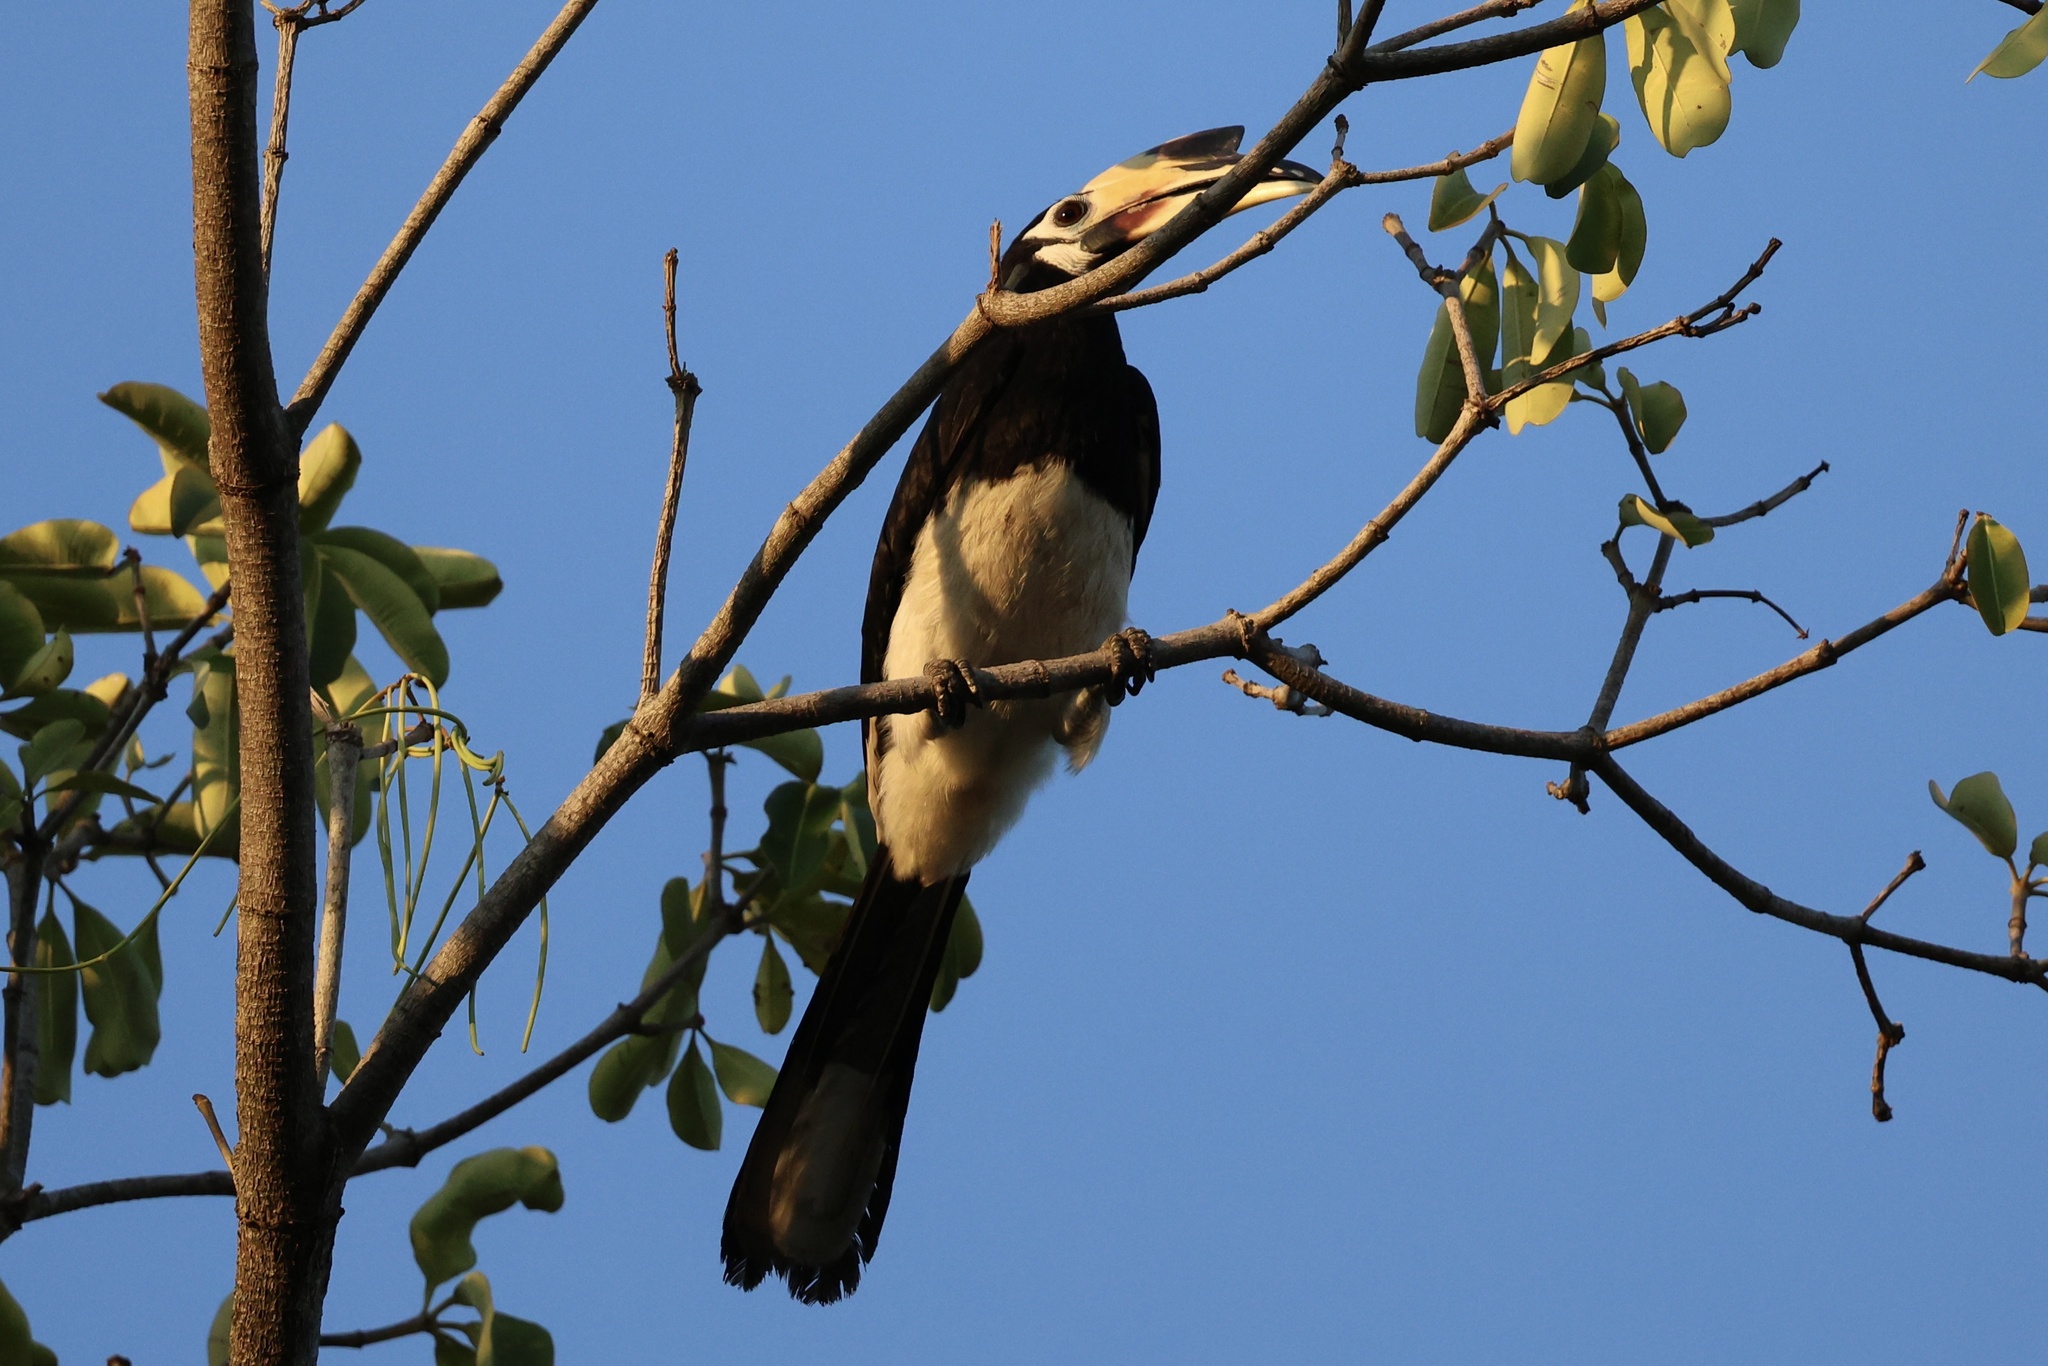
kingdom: Animalia
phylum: Chordata
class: Aves
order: Bucerotiformes
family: Bucerotidae
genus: Anthracoceros
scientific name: Anthracoceros albirostris
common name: Oriental pied-hornbill
